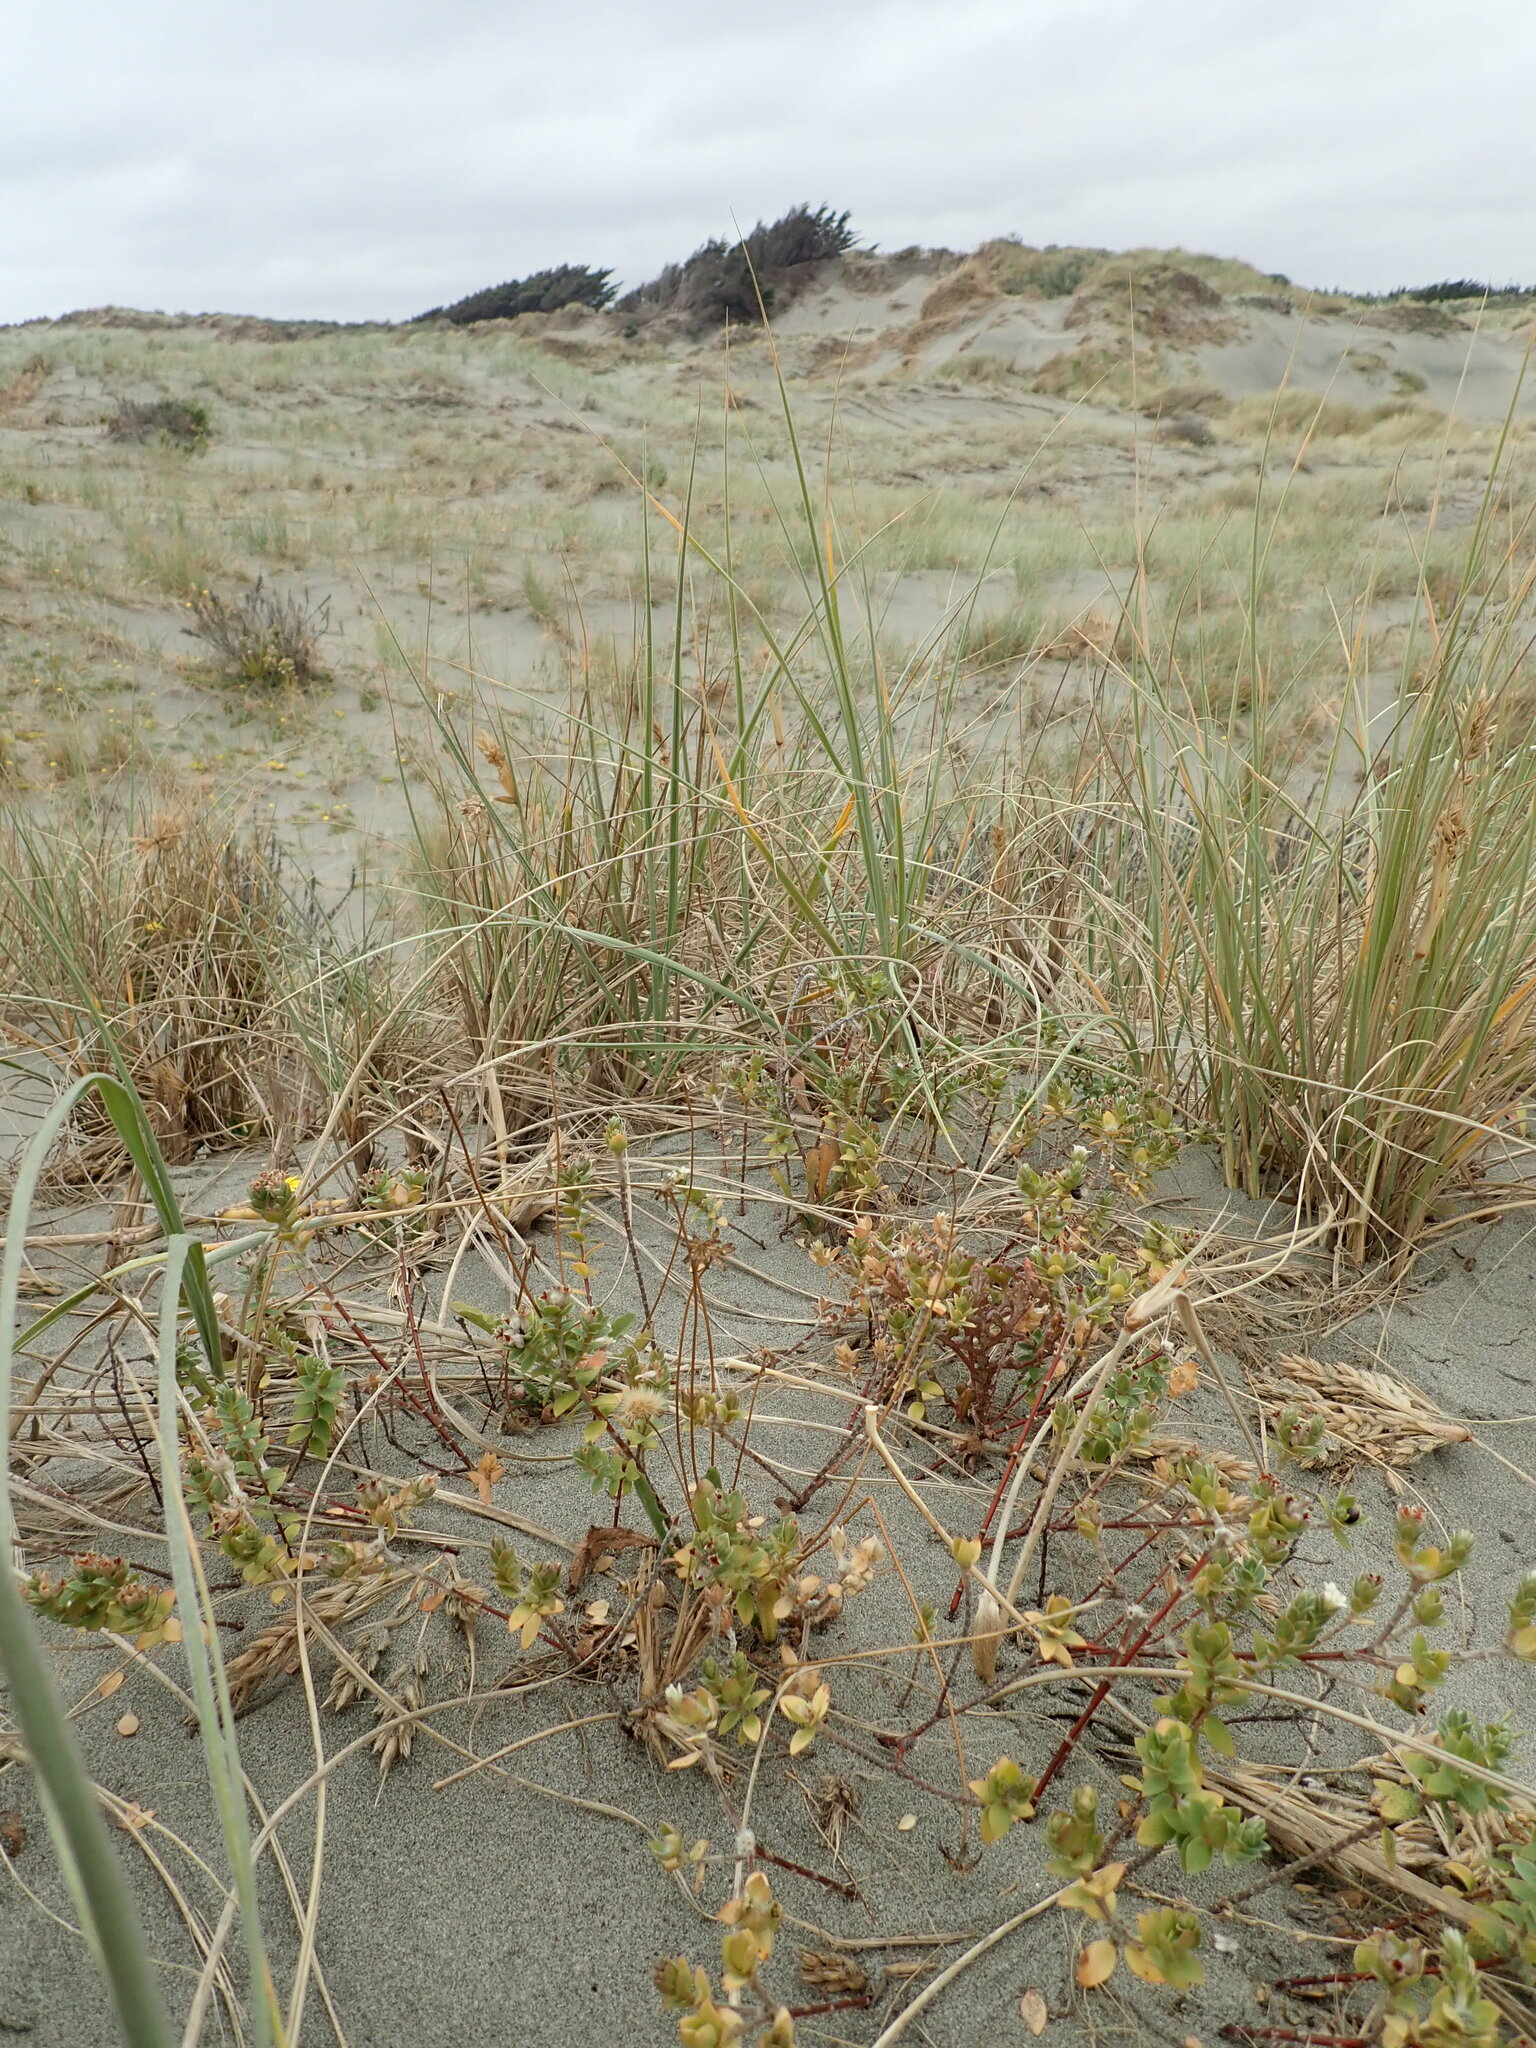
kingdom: Plantae
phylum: Tracheophyta
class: Magnoliopsida
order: Malvales
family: Thymelaeaceae
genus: Pimelea
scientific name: Pimelea villosa
